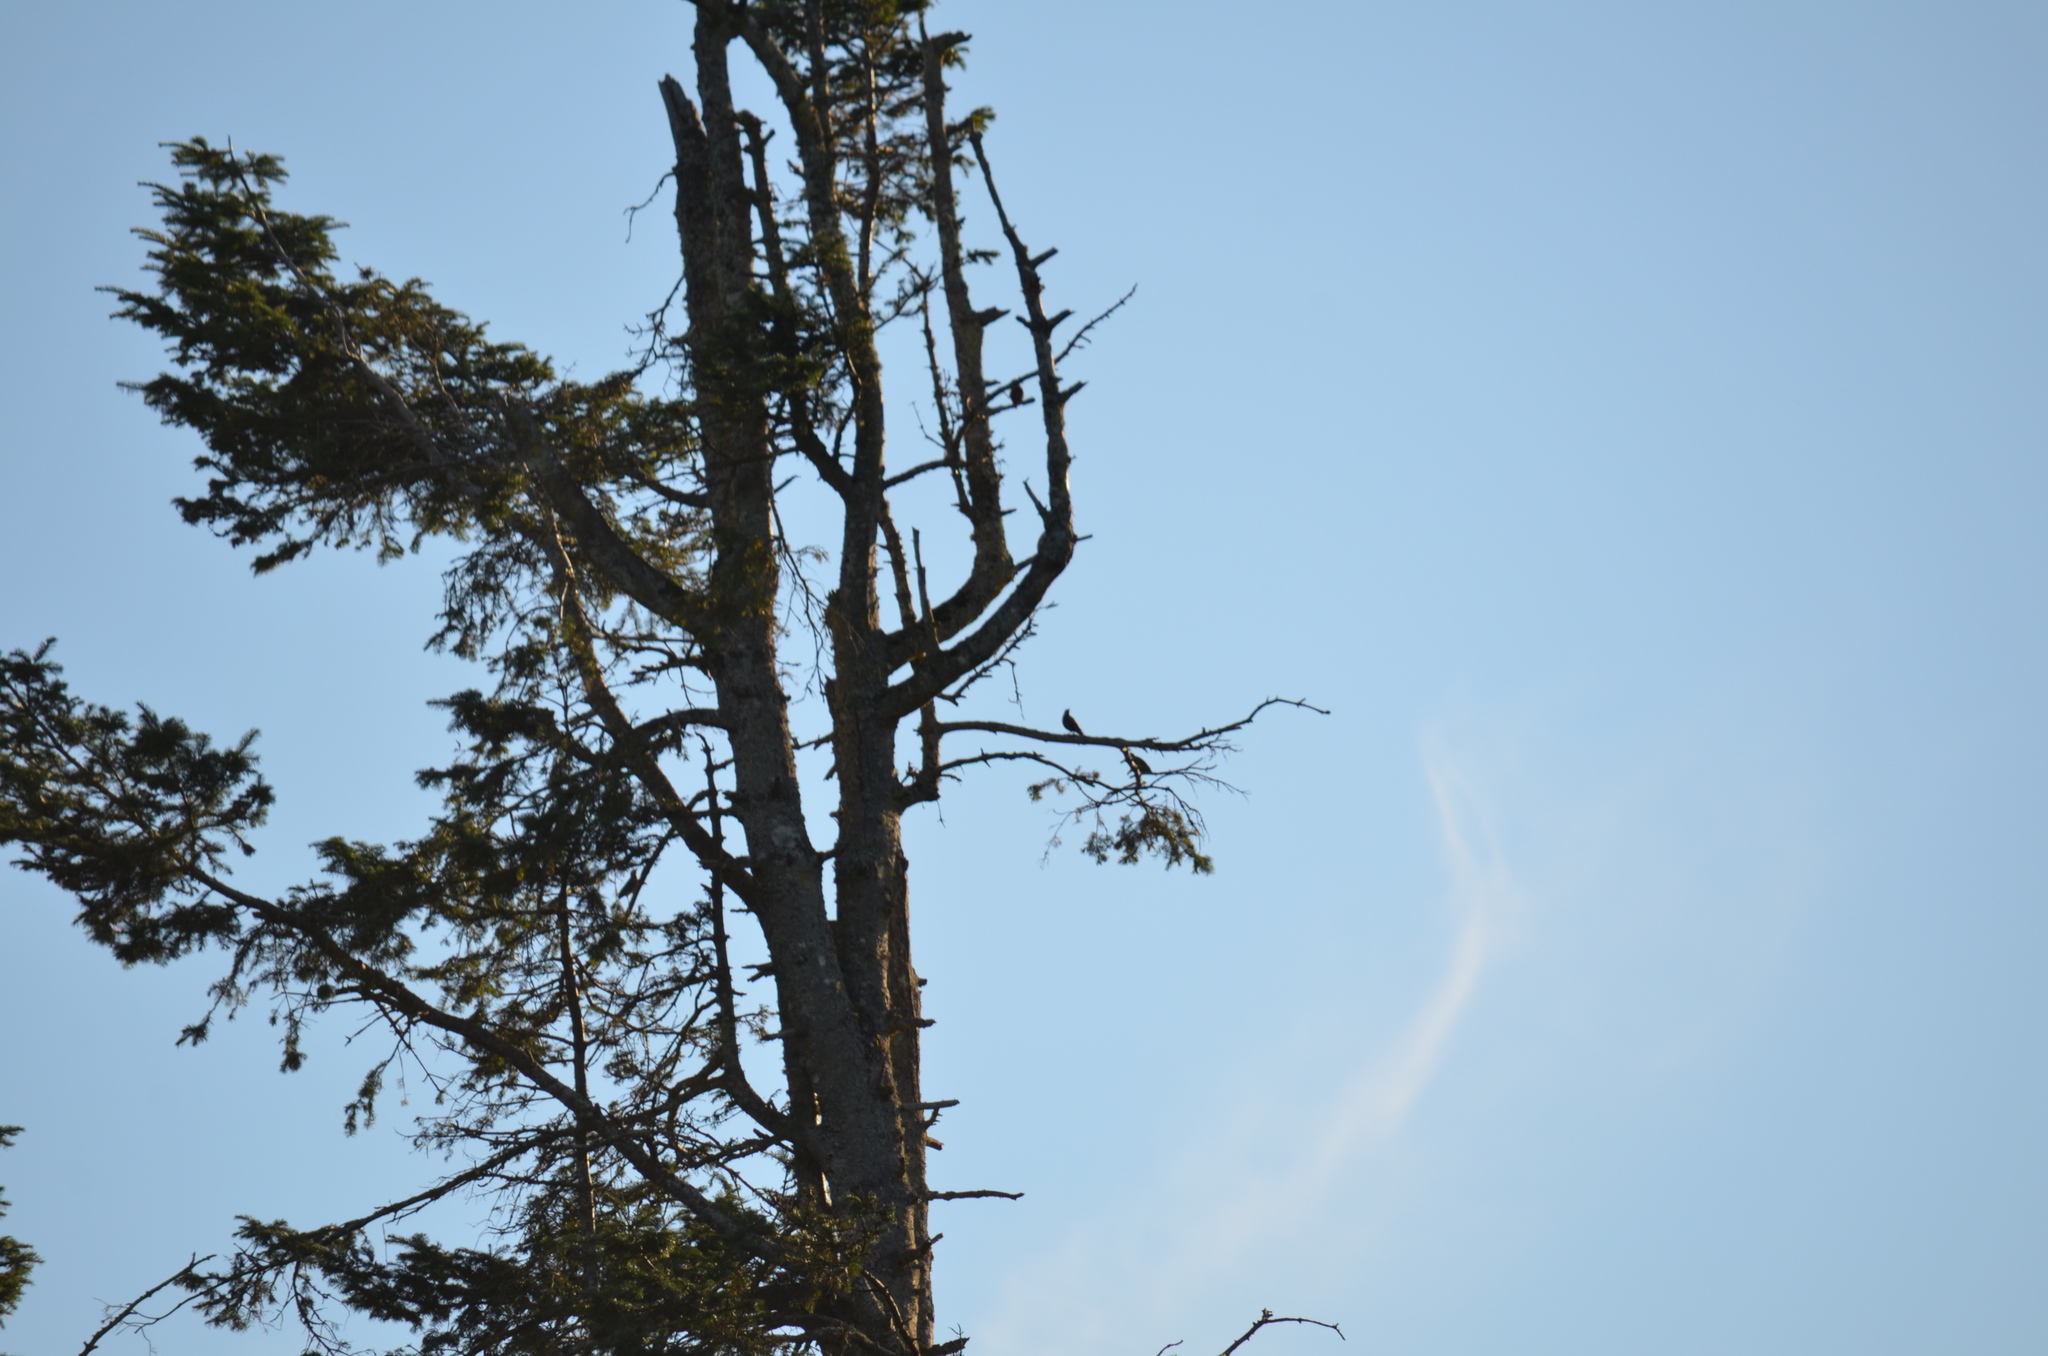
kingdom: Animalia
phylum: Chordata
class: Aves
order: Passeriformes
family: Corvidae
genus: Corvus
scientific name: Corvus brachyrhynchos
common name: American crow
